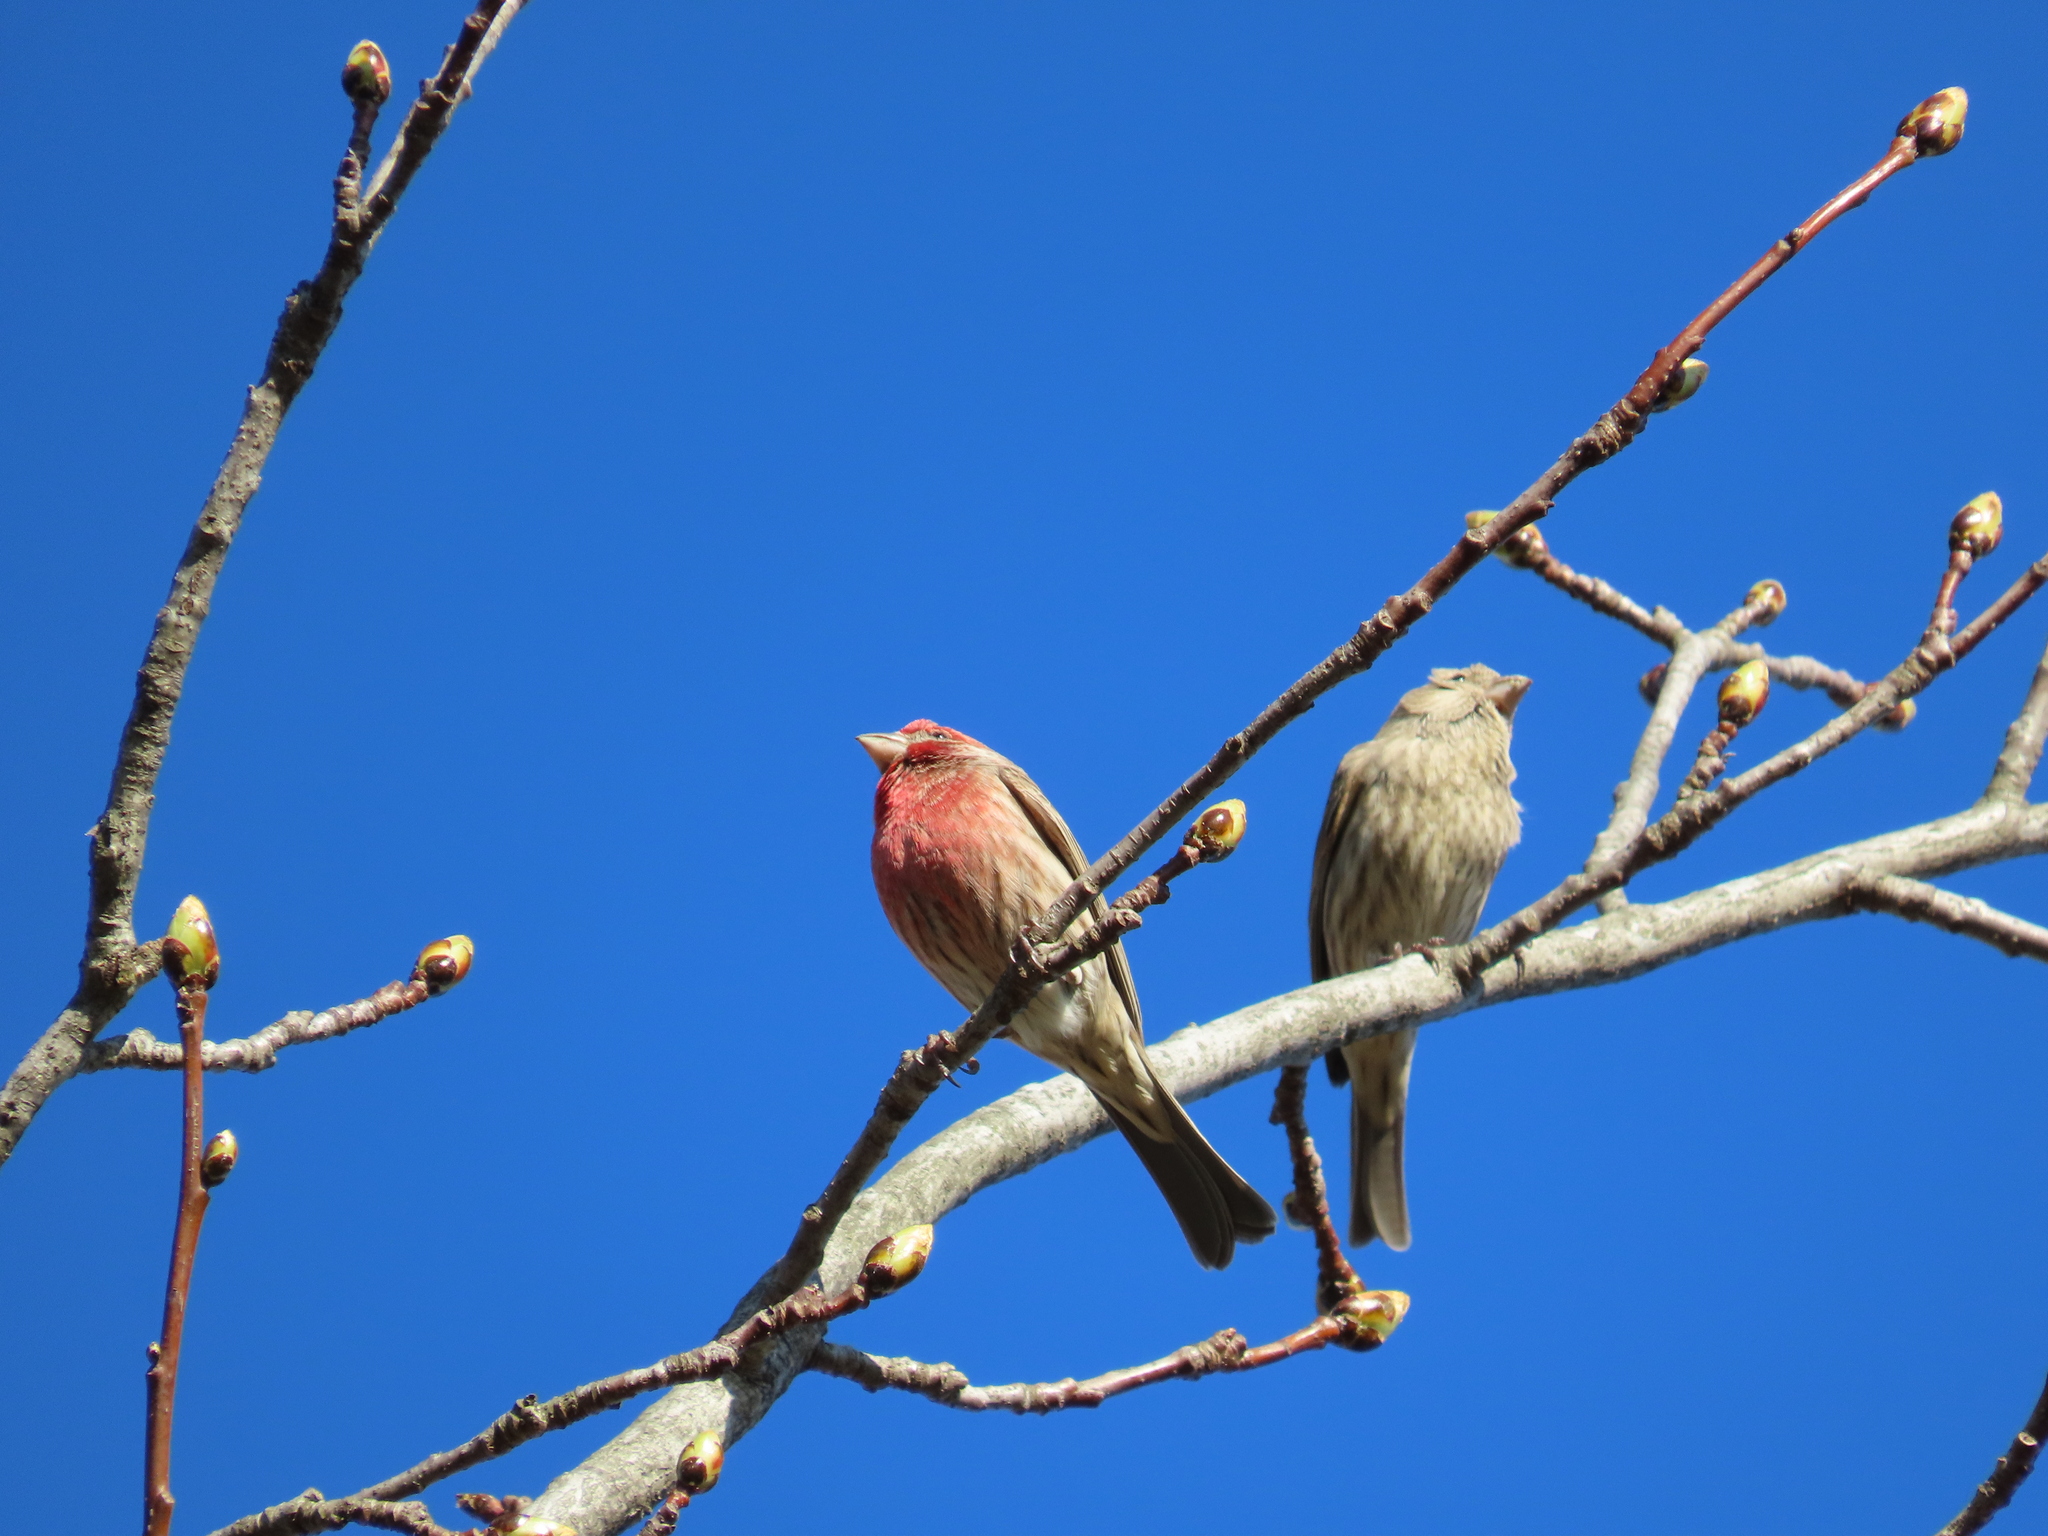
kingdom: Animalia
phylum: Chordata
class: Aves
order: Passeriformes
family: Fringillidae
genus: Haemorhous
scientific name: Haemorhous mexicanus
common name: House finch
